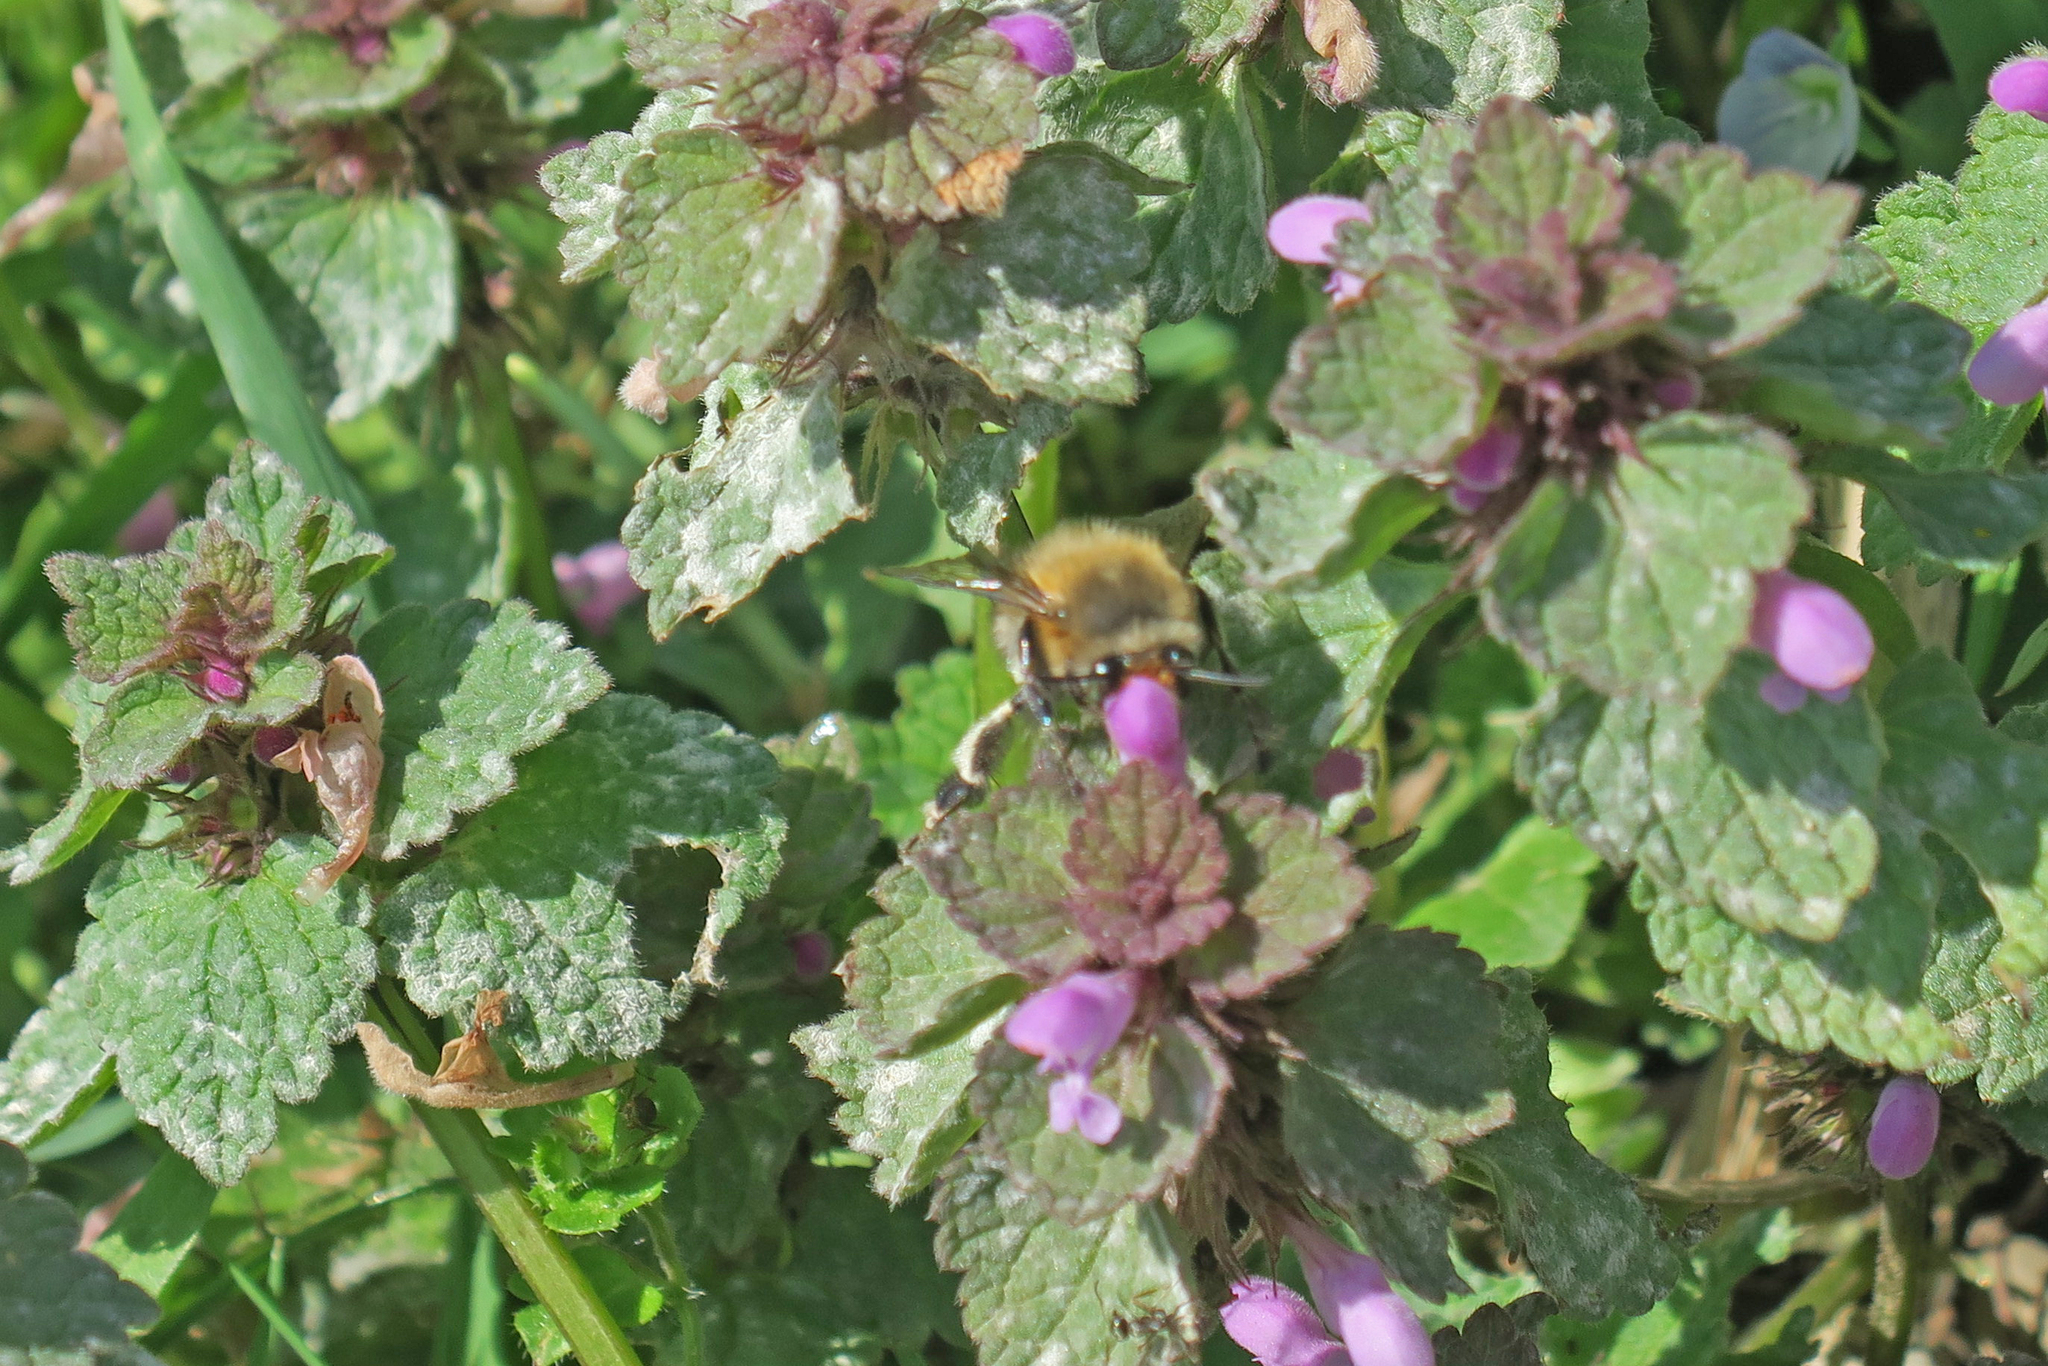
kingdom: Animalia
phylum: Arthropoda
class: Insecta
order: Hymenoptera
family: Apidae
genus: Anthophora
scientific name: Anthophora plumipes
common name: Hairy-footed flower bee
